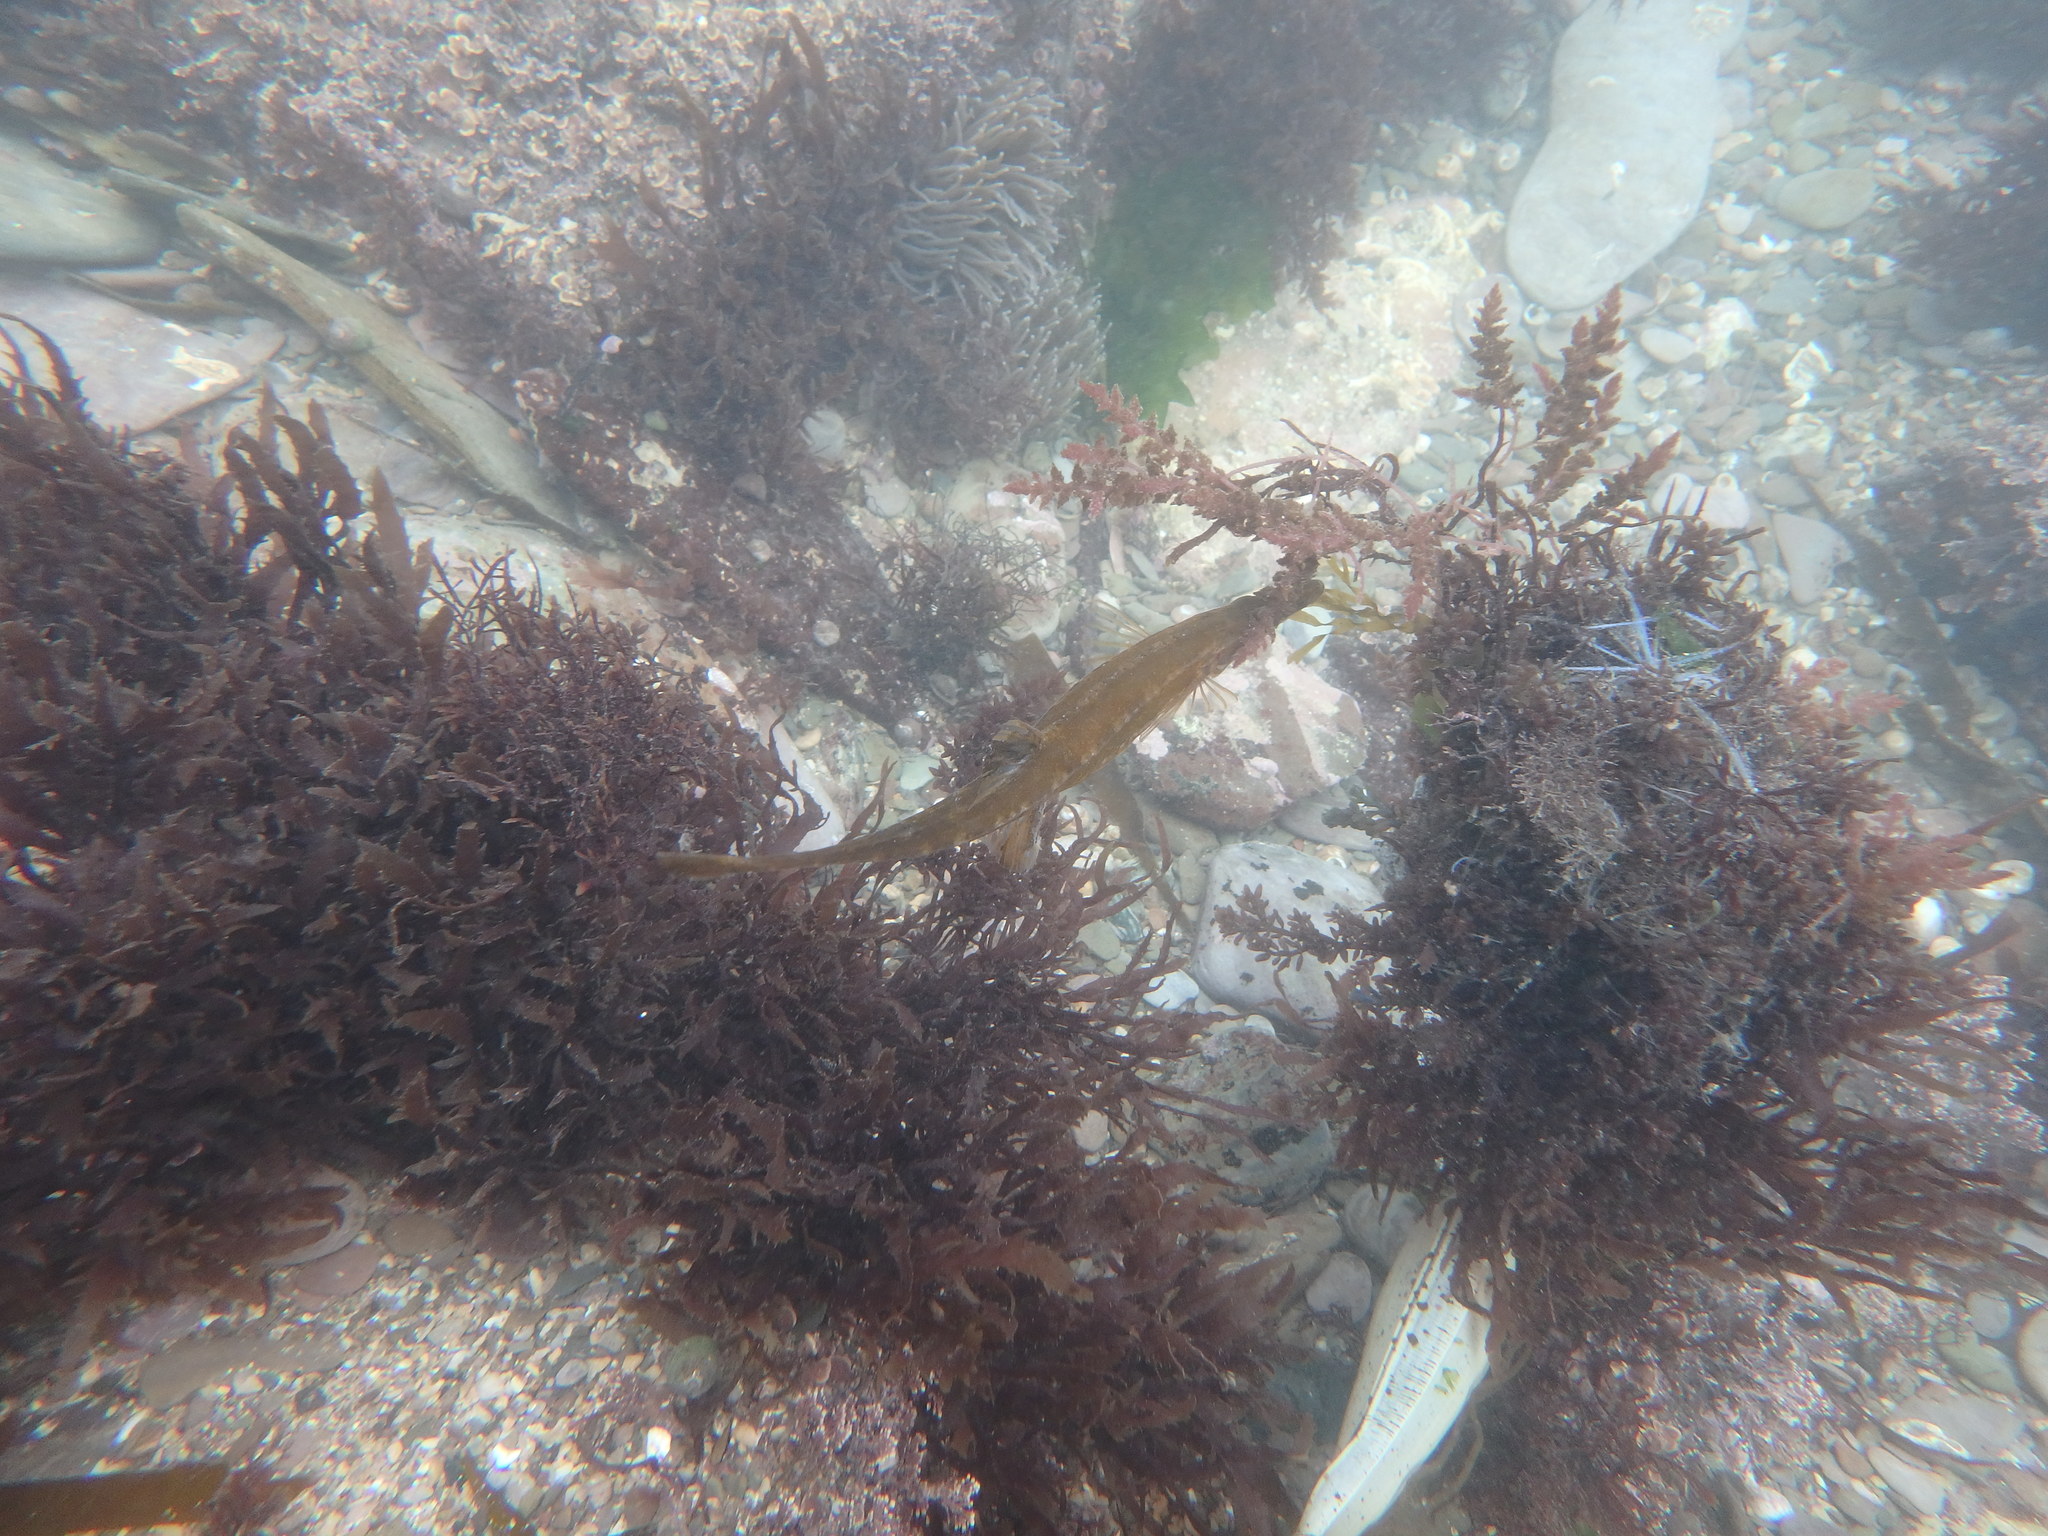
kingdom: Animalia
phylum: Chordata
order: Gasterosteiformes
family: Gasterosteidae
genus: Spinachia
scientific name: Spinachia spinachia
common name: Fifteen-spined stickleback
